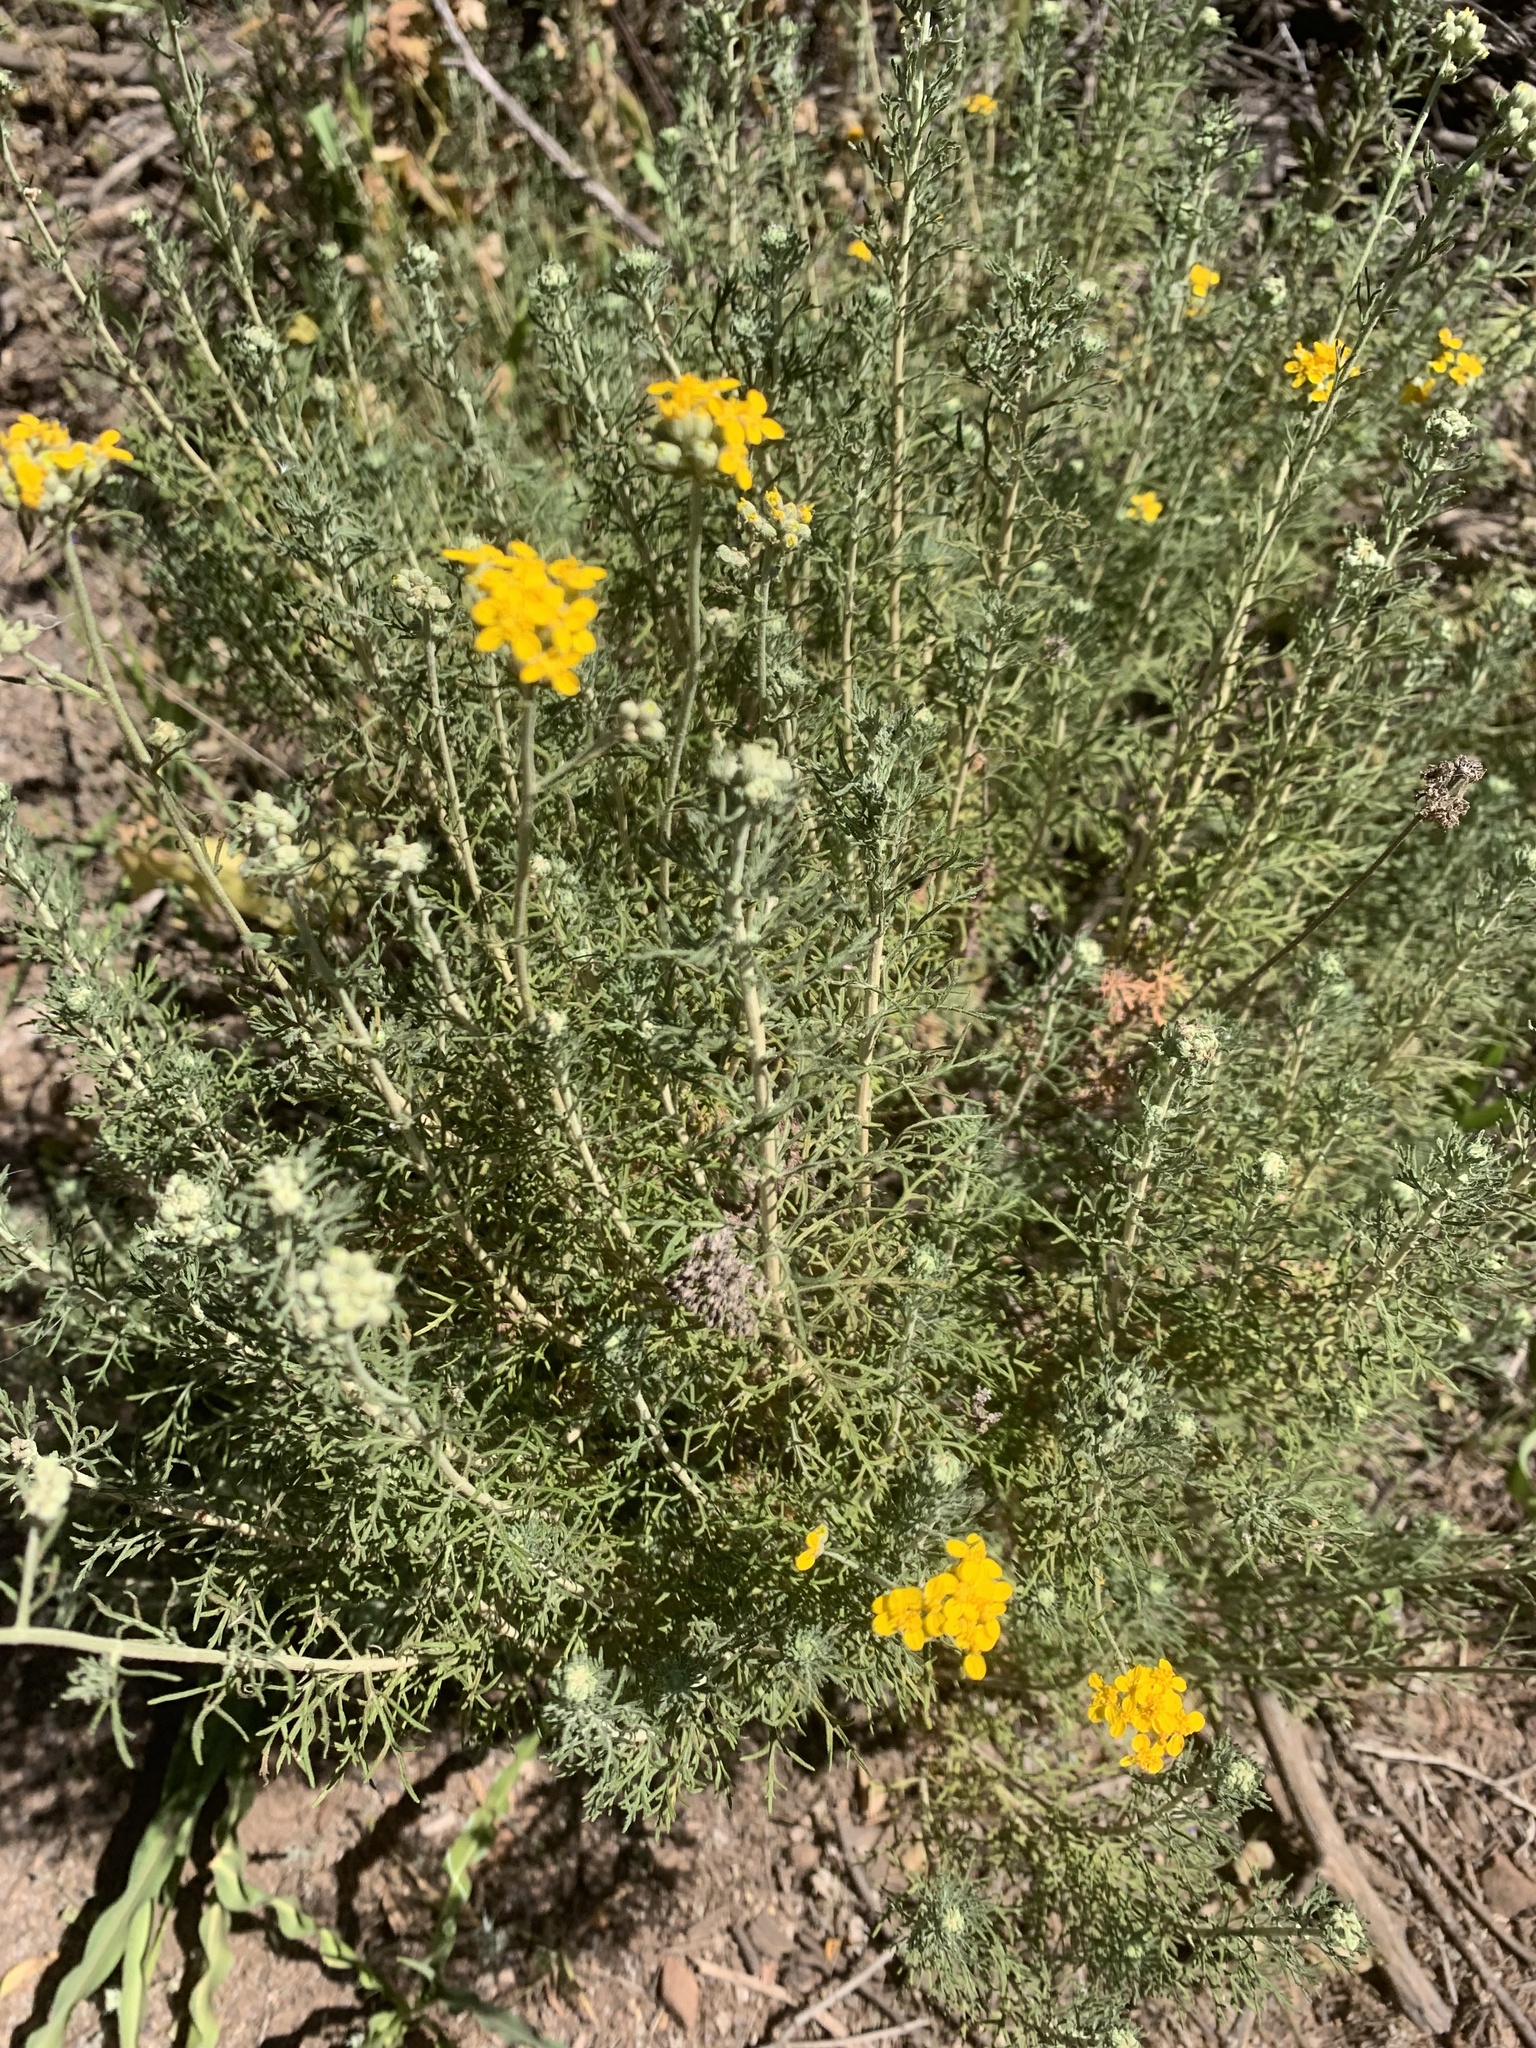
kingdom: Plantae
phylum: Tracheophyta
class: Magnoliopsida
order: Asterales
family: Asteraceae
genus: Eriophyllum
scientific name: Eriophyllum confertiflorum
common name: Golden-yarrow
